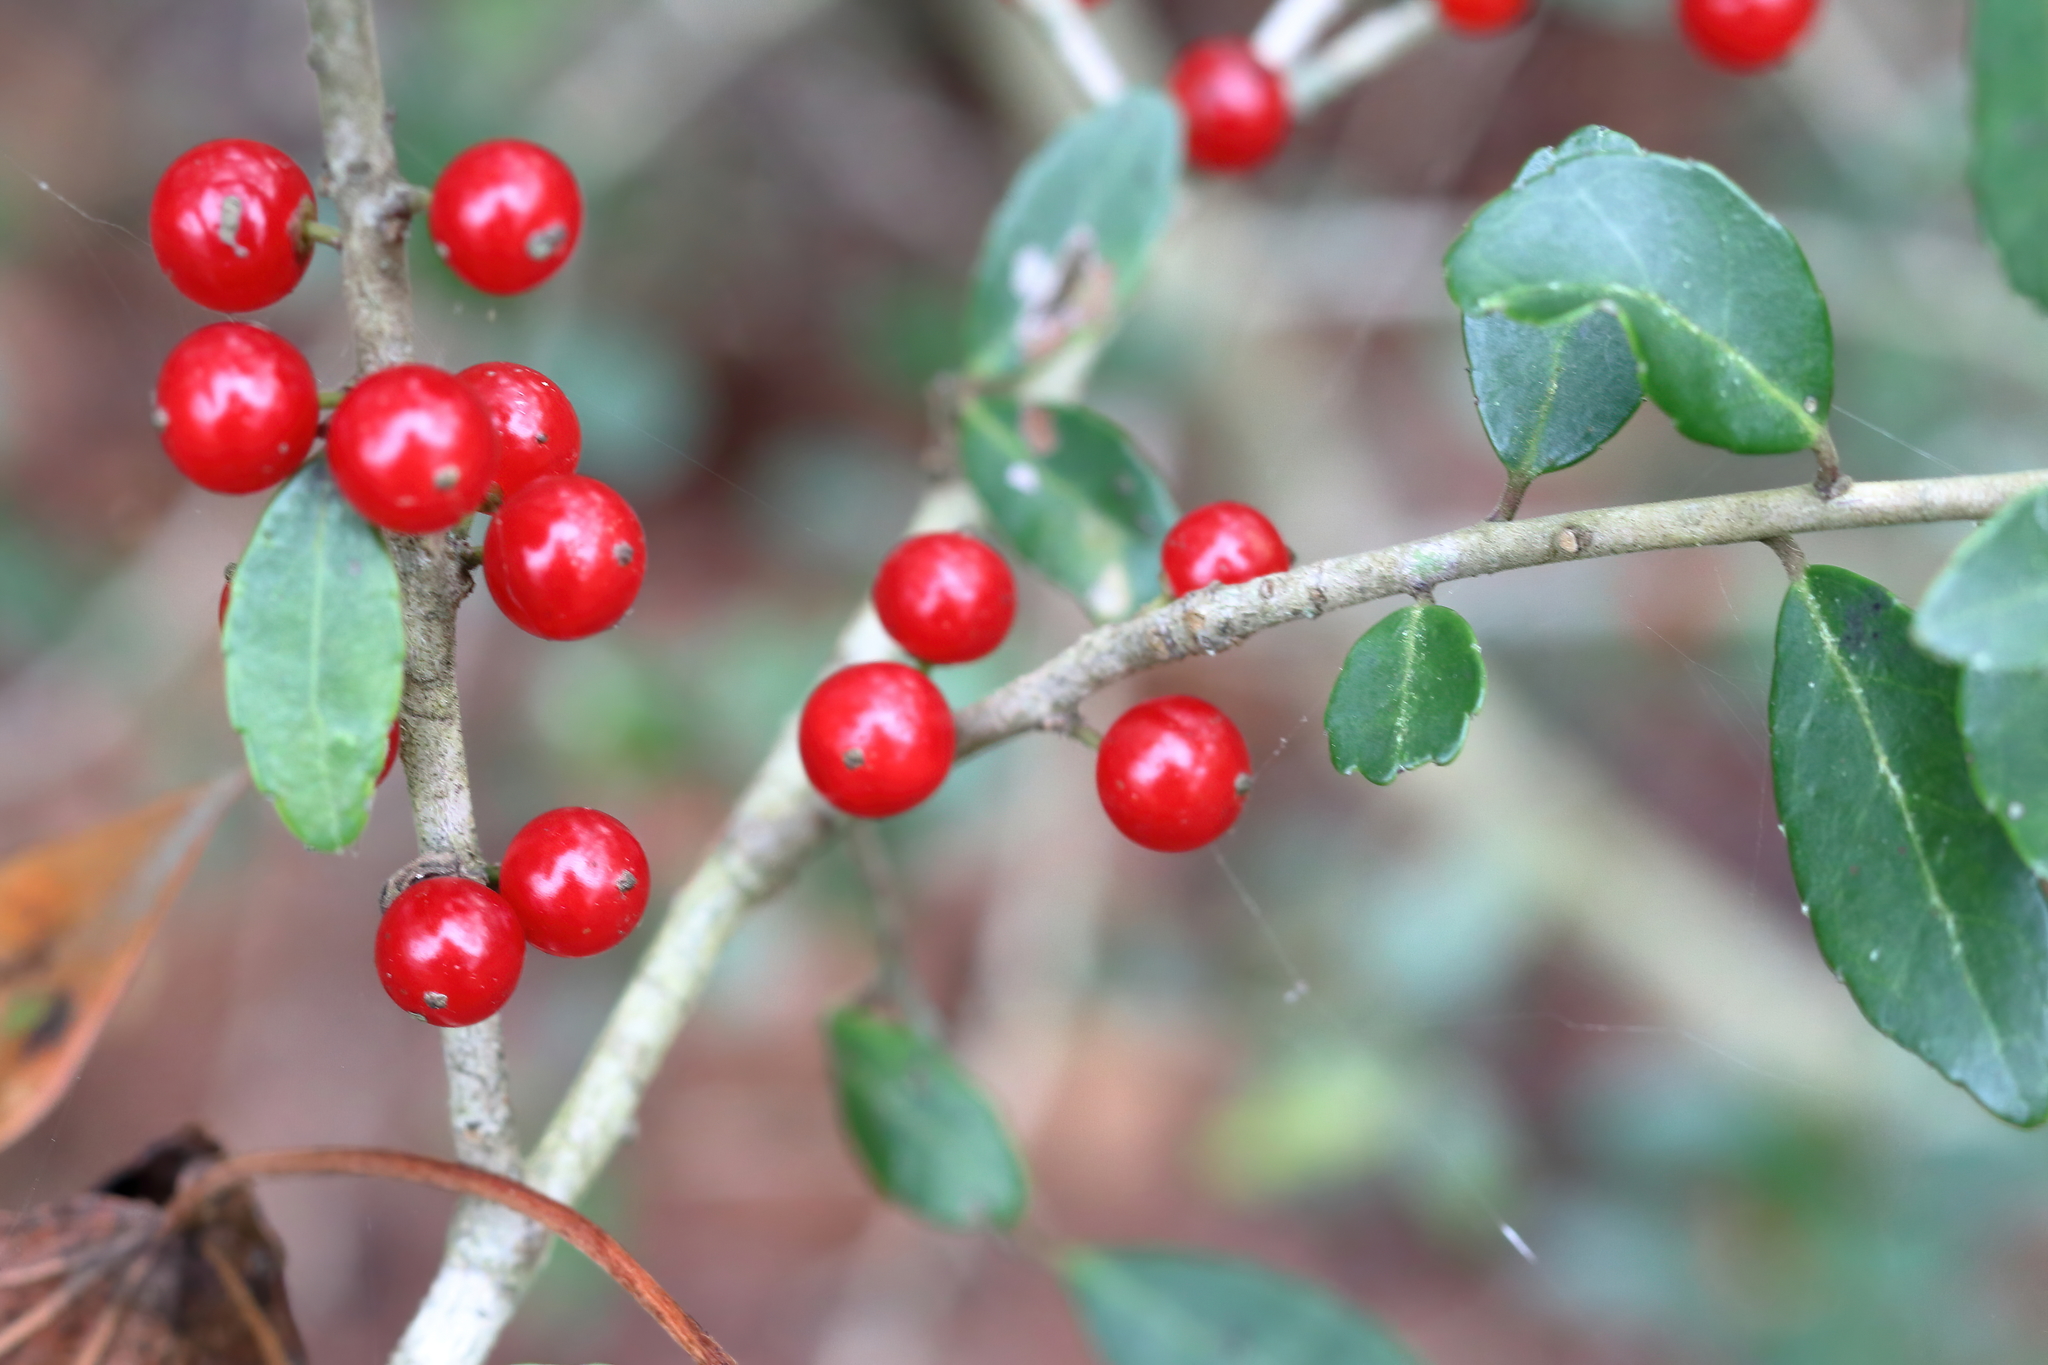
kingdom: Plantae
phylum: Tracheophyta
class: Magnoliopsida
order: Aquifoliales
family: Aquifoliaceae
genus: Ilex
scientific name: Ilex vomitoria
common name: Yaupon holly
